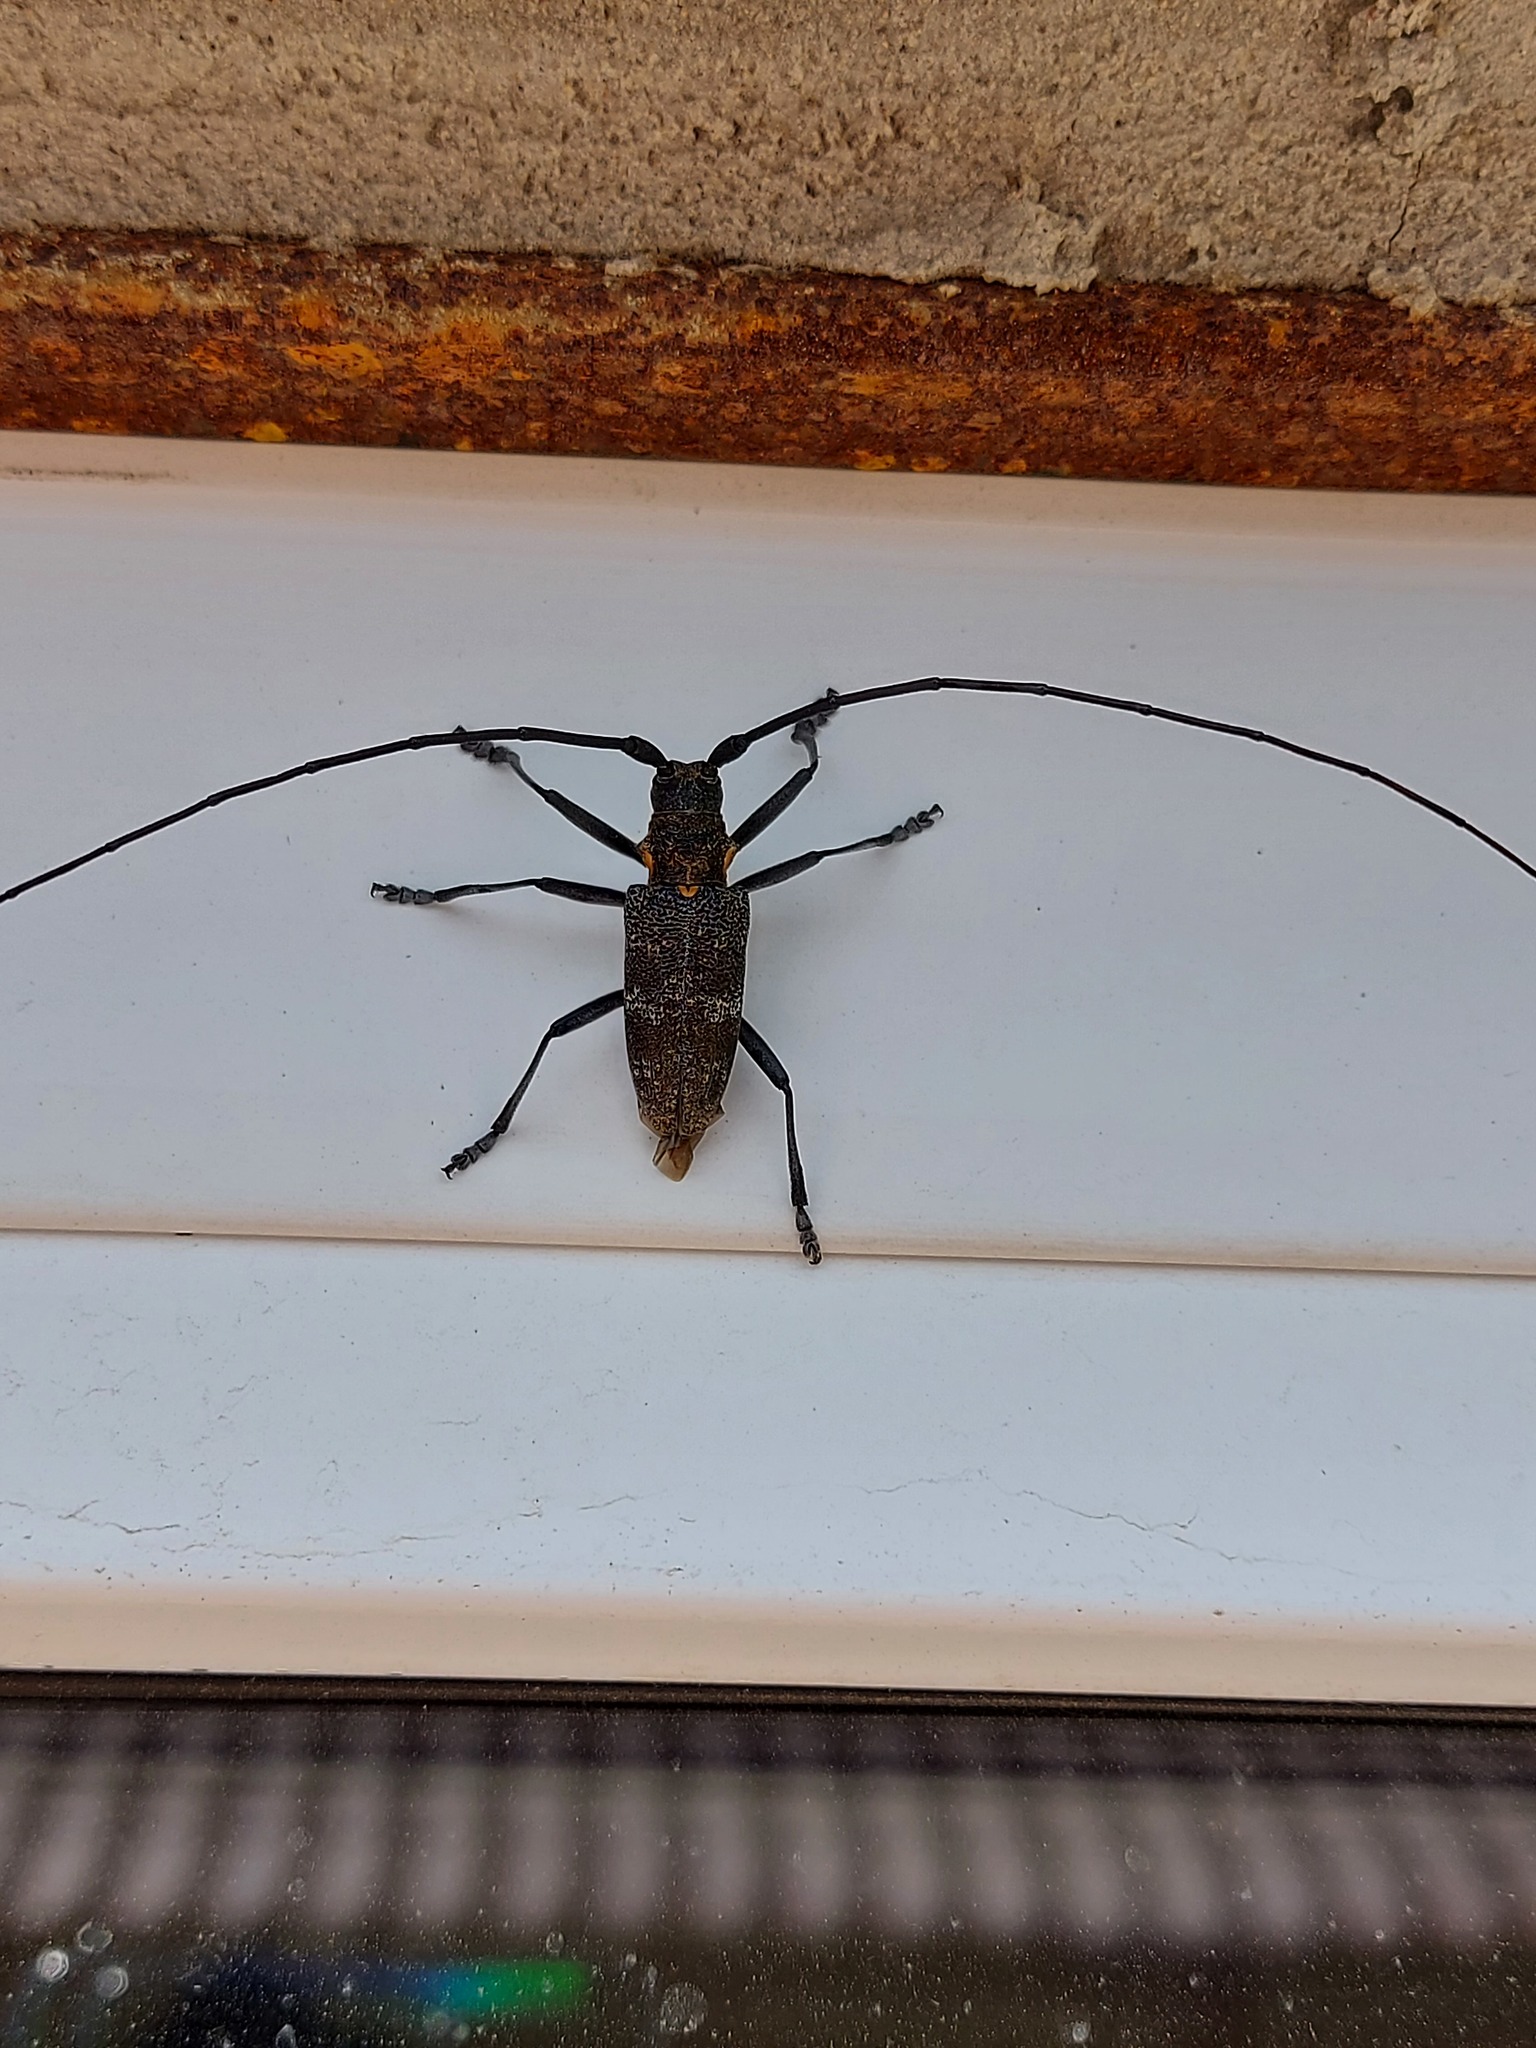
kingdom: Animalia
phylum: Arthropoda
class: Insecta
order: Coleoptera
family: Cerambycidae
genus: Monochamus
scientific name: Monochamus galloprovincialis
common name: Pine sawyer
